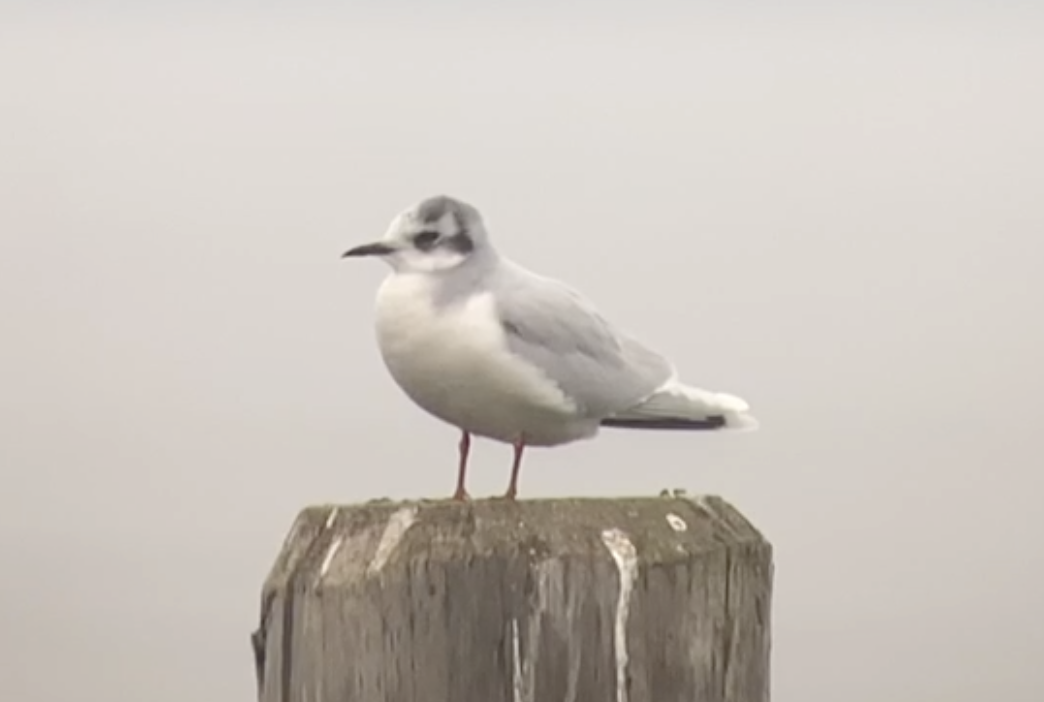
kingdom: Animalia
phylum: Chordata
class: Aves
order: Charadriiformes
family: Laridae
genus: Hydrocoloeus
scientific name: Hydrocoloeus minutus
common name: Little gull
